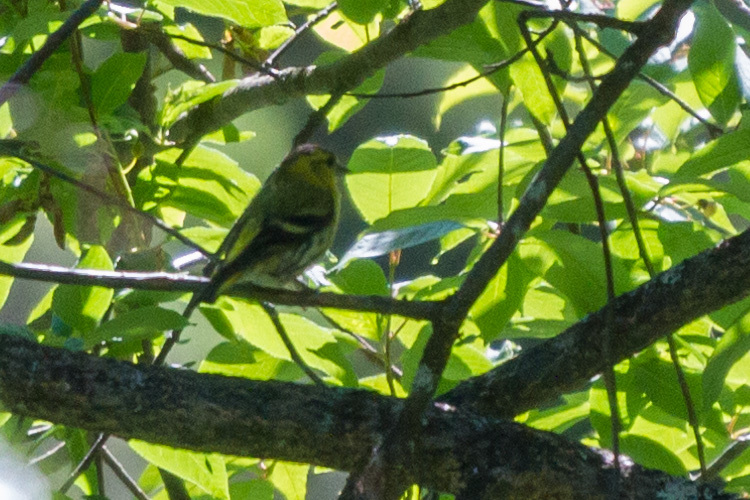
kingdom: Animalia
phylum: Chordata
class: Aves
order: Passeriformes
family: Fringillidae
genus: Spinus
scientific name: Spinus spinus
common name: Eurasian siskin
